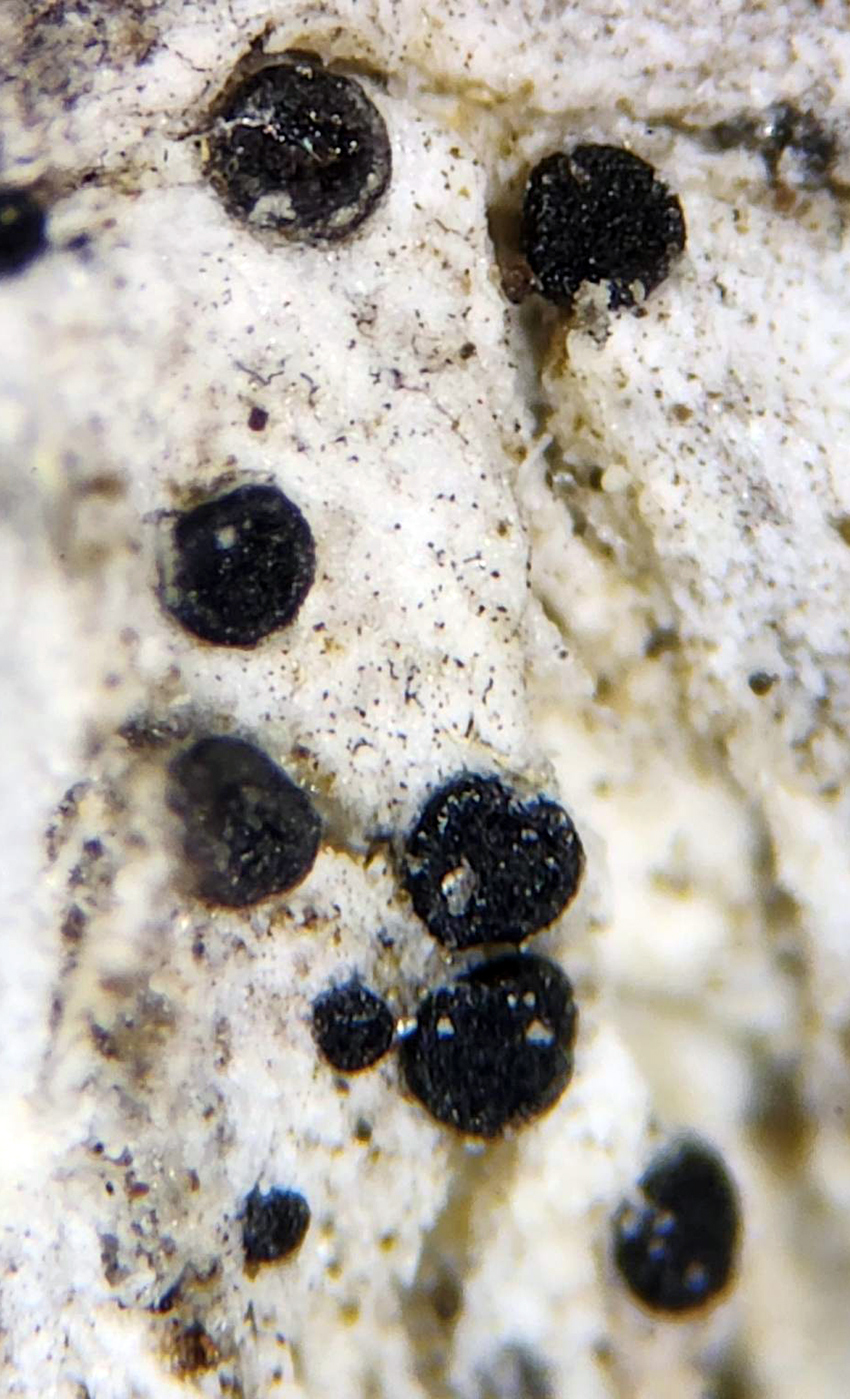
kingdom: Fungi
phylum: Ascomycota
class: Lecanoromycetes
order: Caliciales
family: Caliciaceae
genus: Buellia
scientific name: Buellia disciformis
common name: Boreal button lichen
